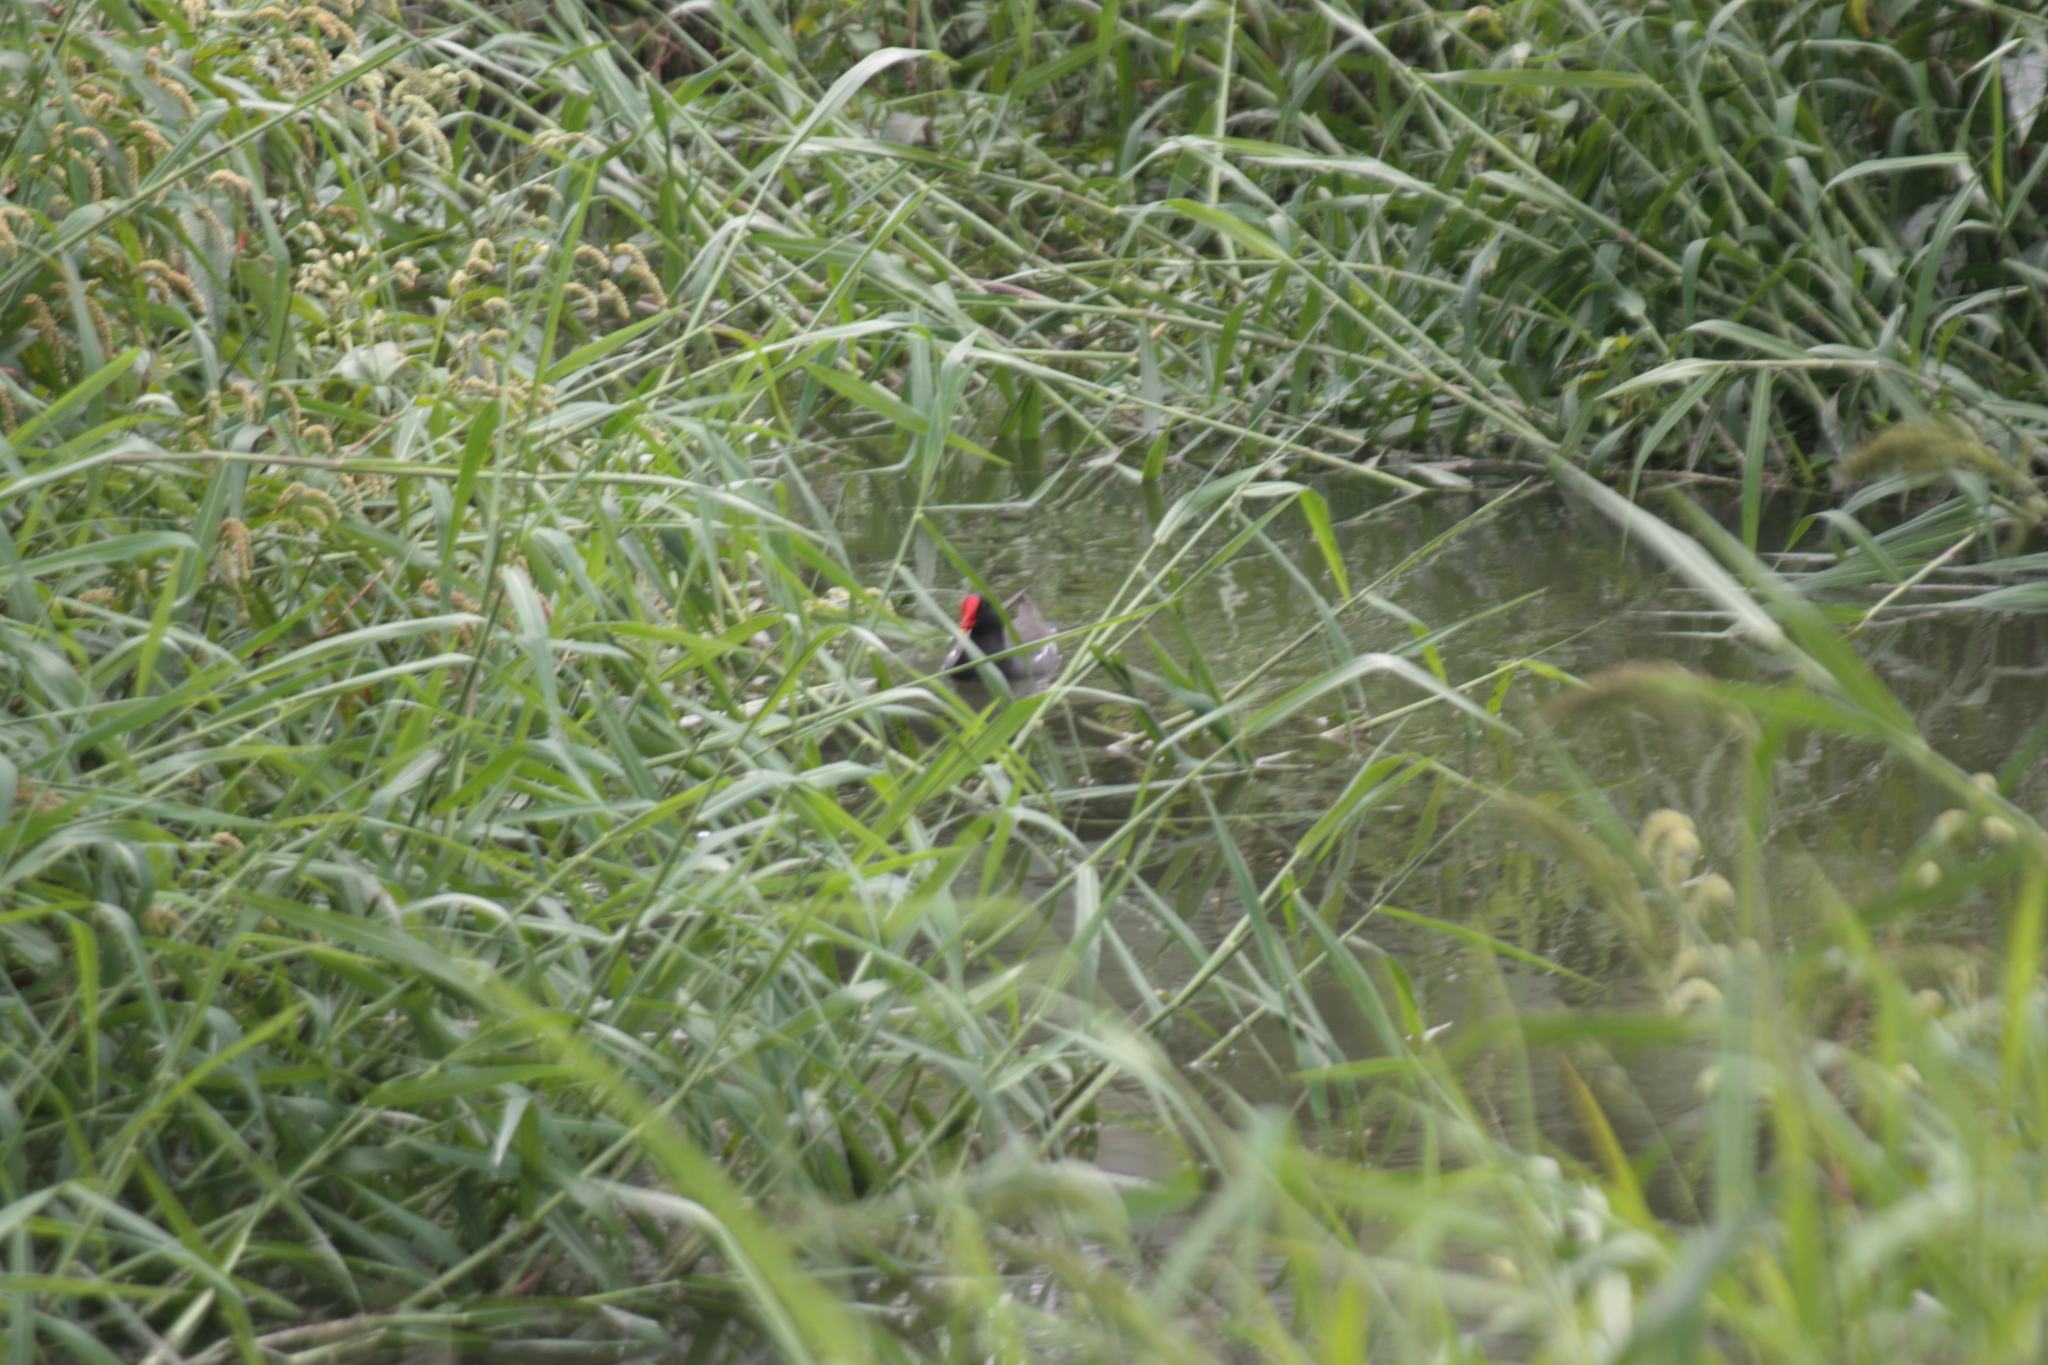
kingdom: Animalia
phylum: Chordata
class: Aves
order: Gruiformes
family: Rallidae
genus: Gallinula
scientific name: Gallinula chloropus
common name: Common moorhen
